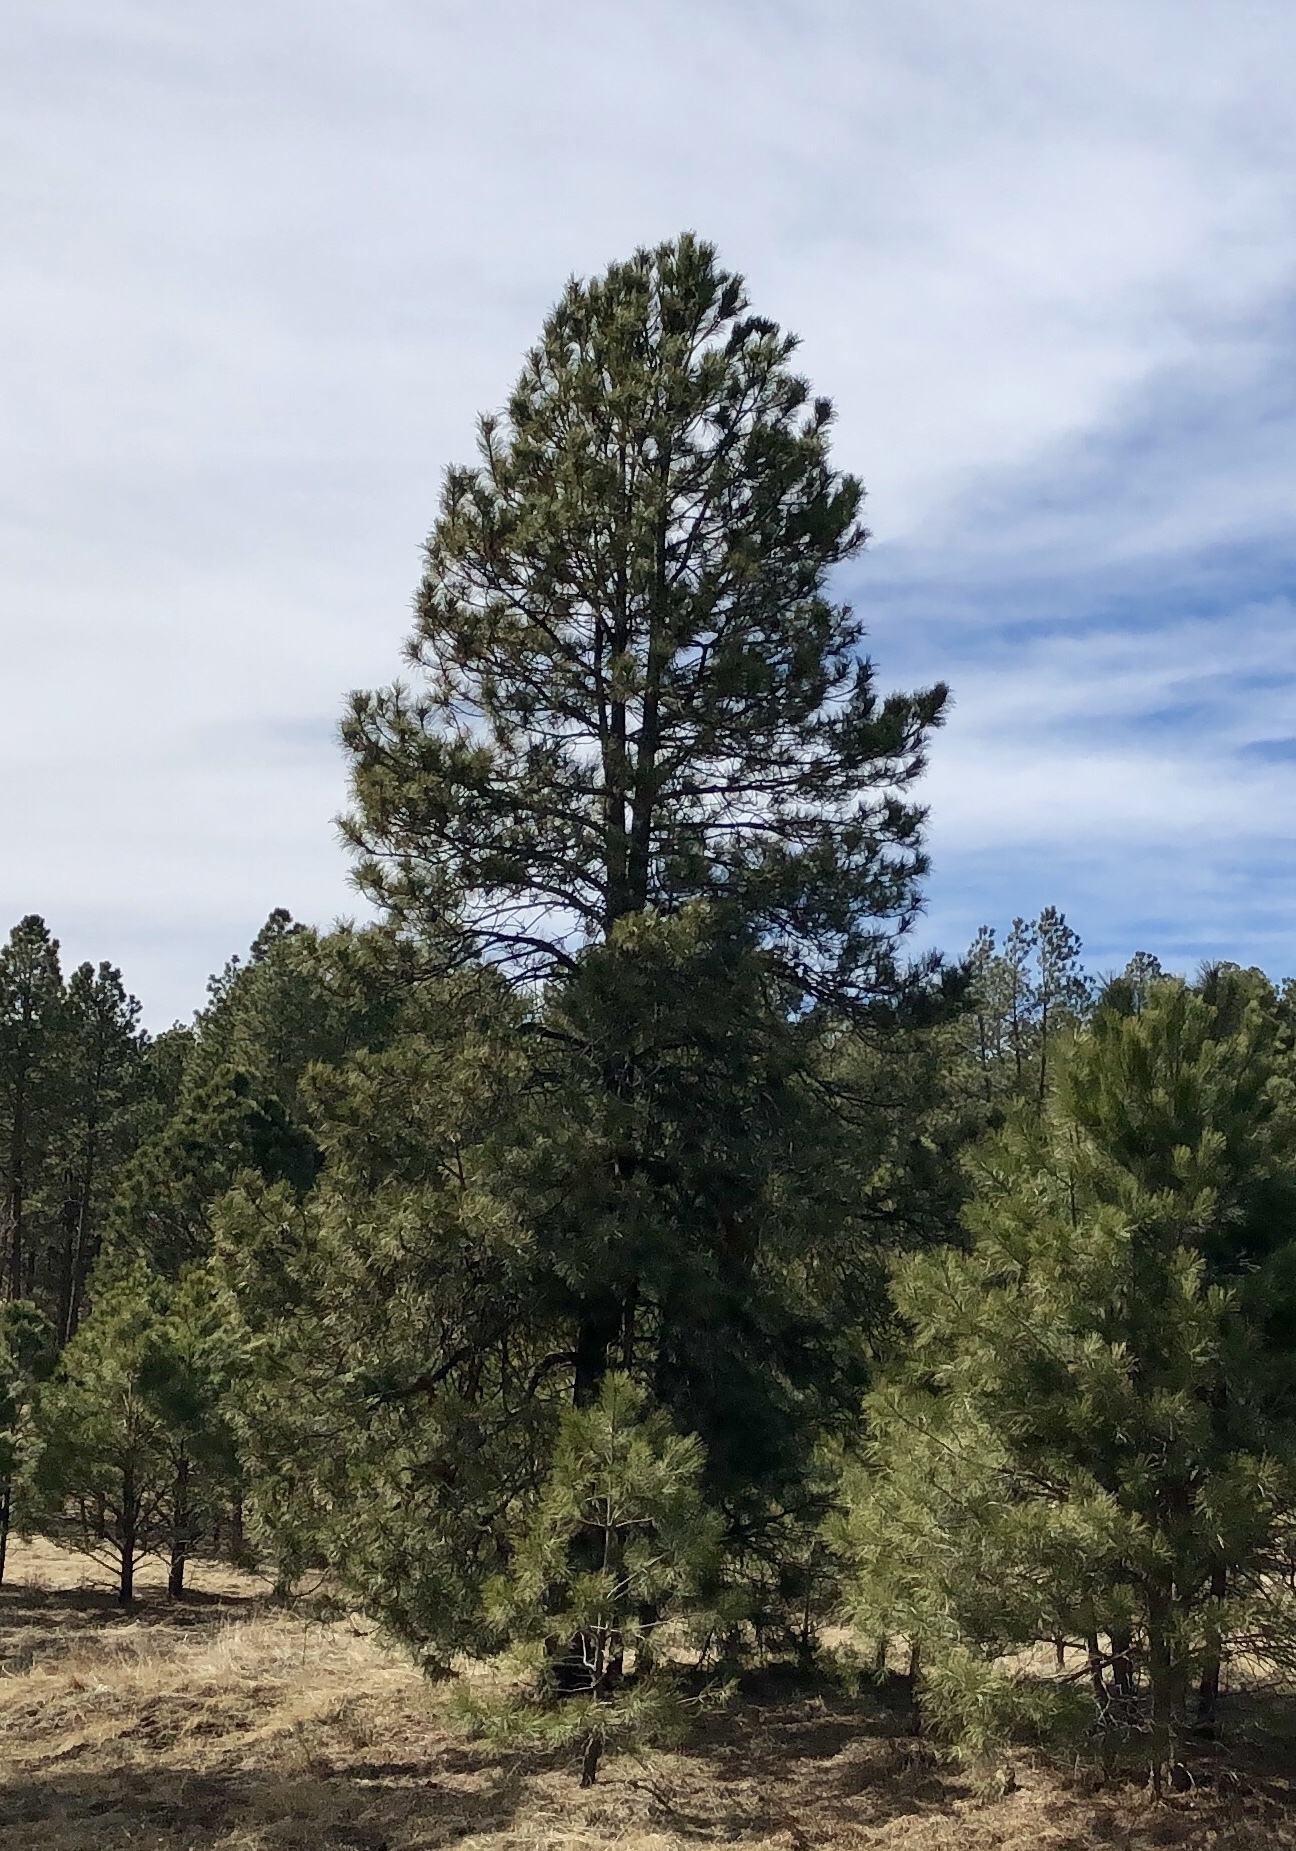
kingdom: Plantae
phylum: Tracheophyta
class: Pinopsida
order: Pinales
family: Pinaceae
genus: Pinus
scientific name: Pinus ponderosa
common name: Western yellow-pine
